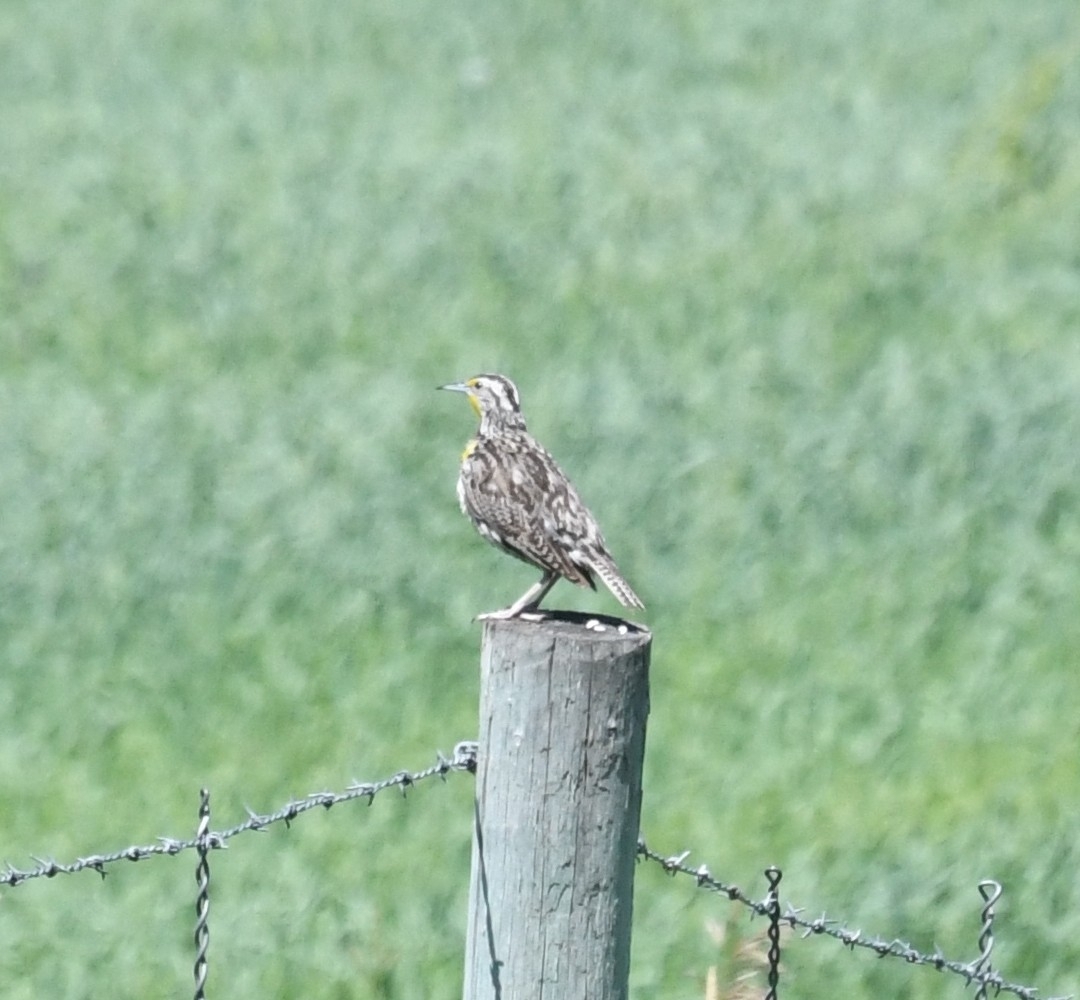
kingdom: Animalia
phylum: Chordata
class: Aves
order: Passeriformes
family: Icteridae
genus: Sturnella
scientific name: Sturnella neglecta
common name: Western meadowlark
